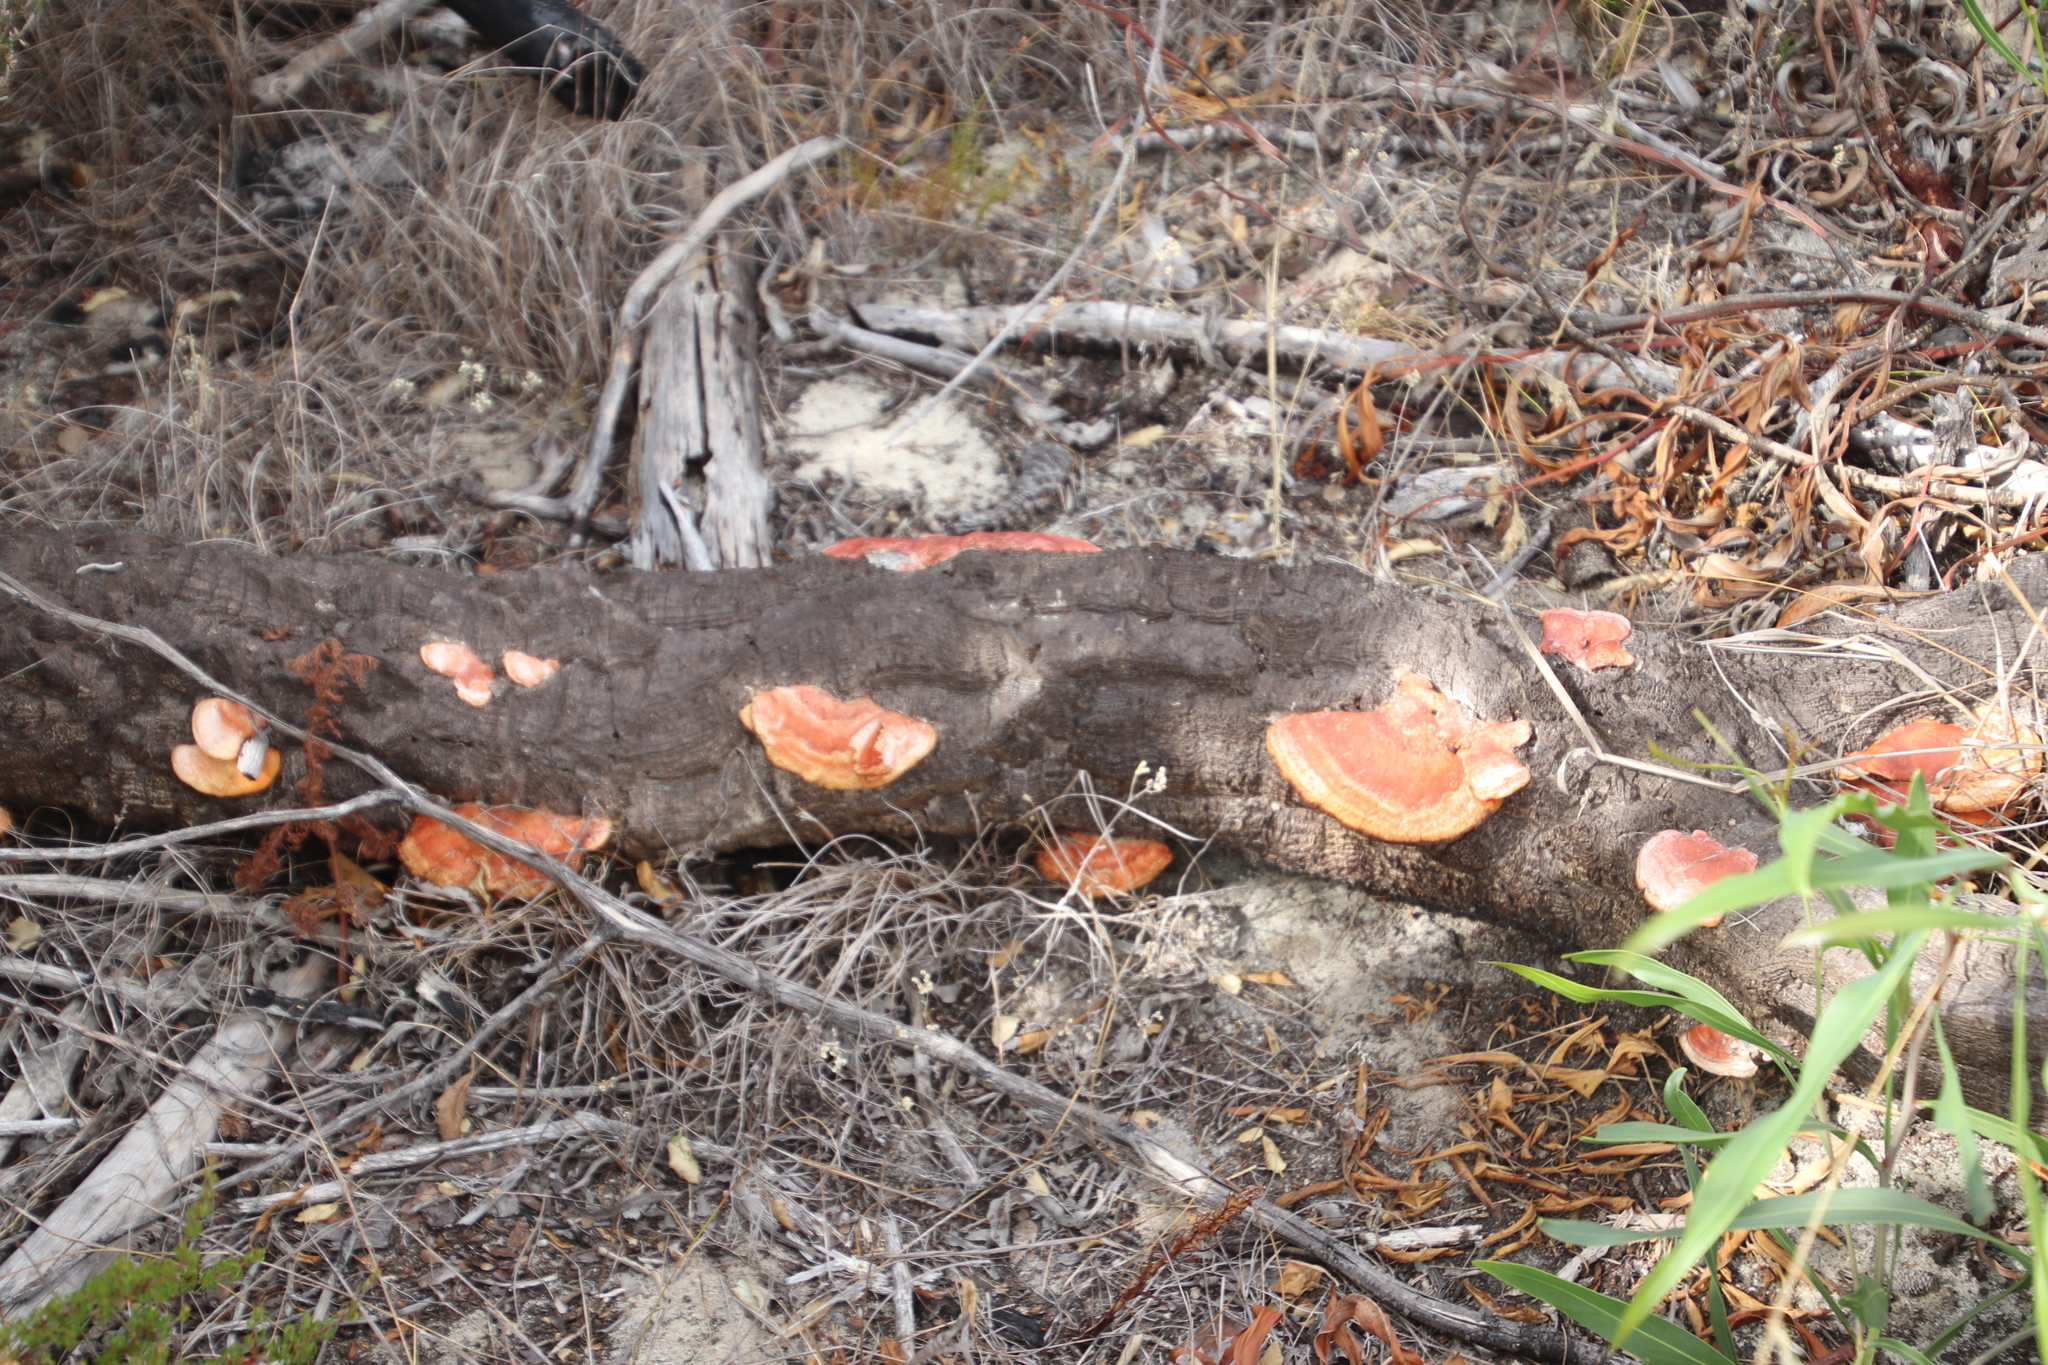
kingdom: Fungi
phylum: Basidiomycota
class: Agaricomycetes
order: Polyporales
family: Polyporaceae
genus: Trametes
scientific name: Trametes coccinea
